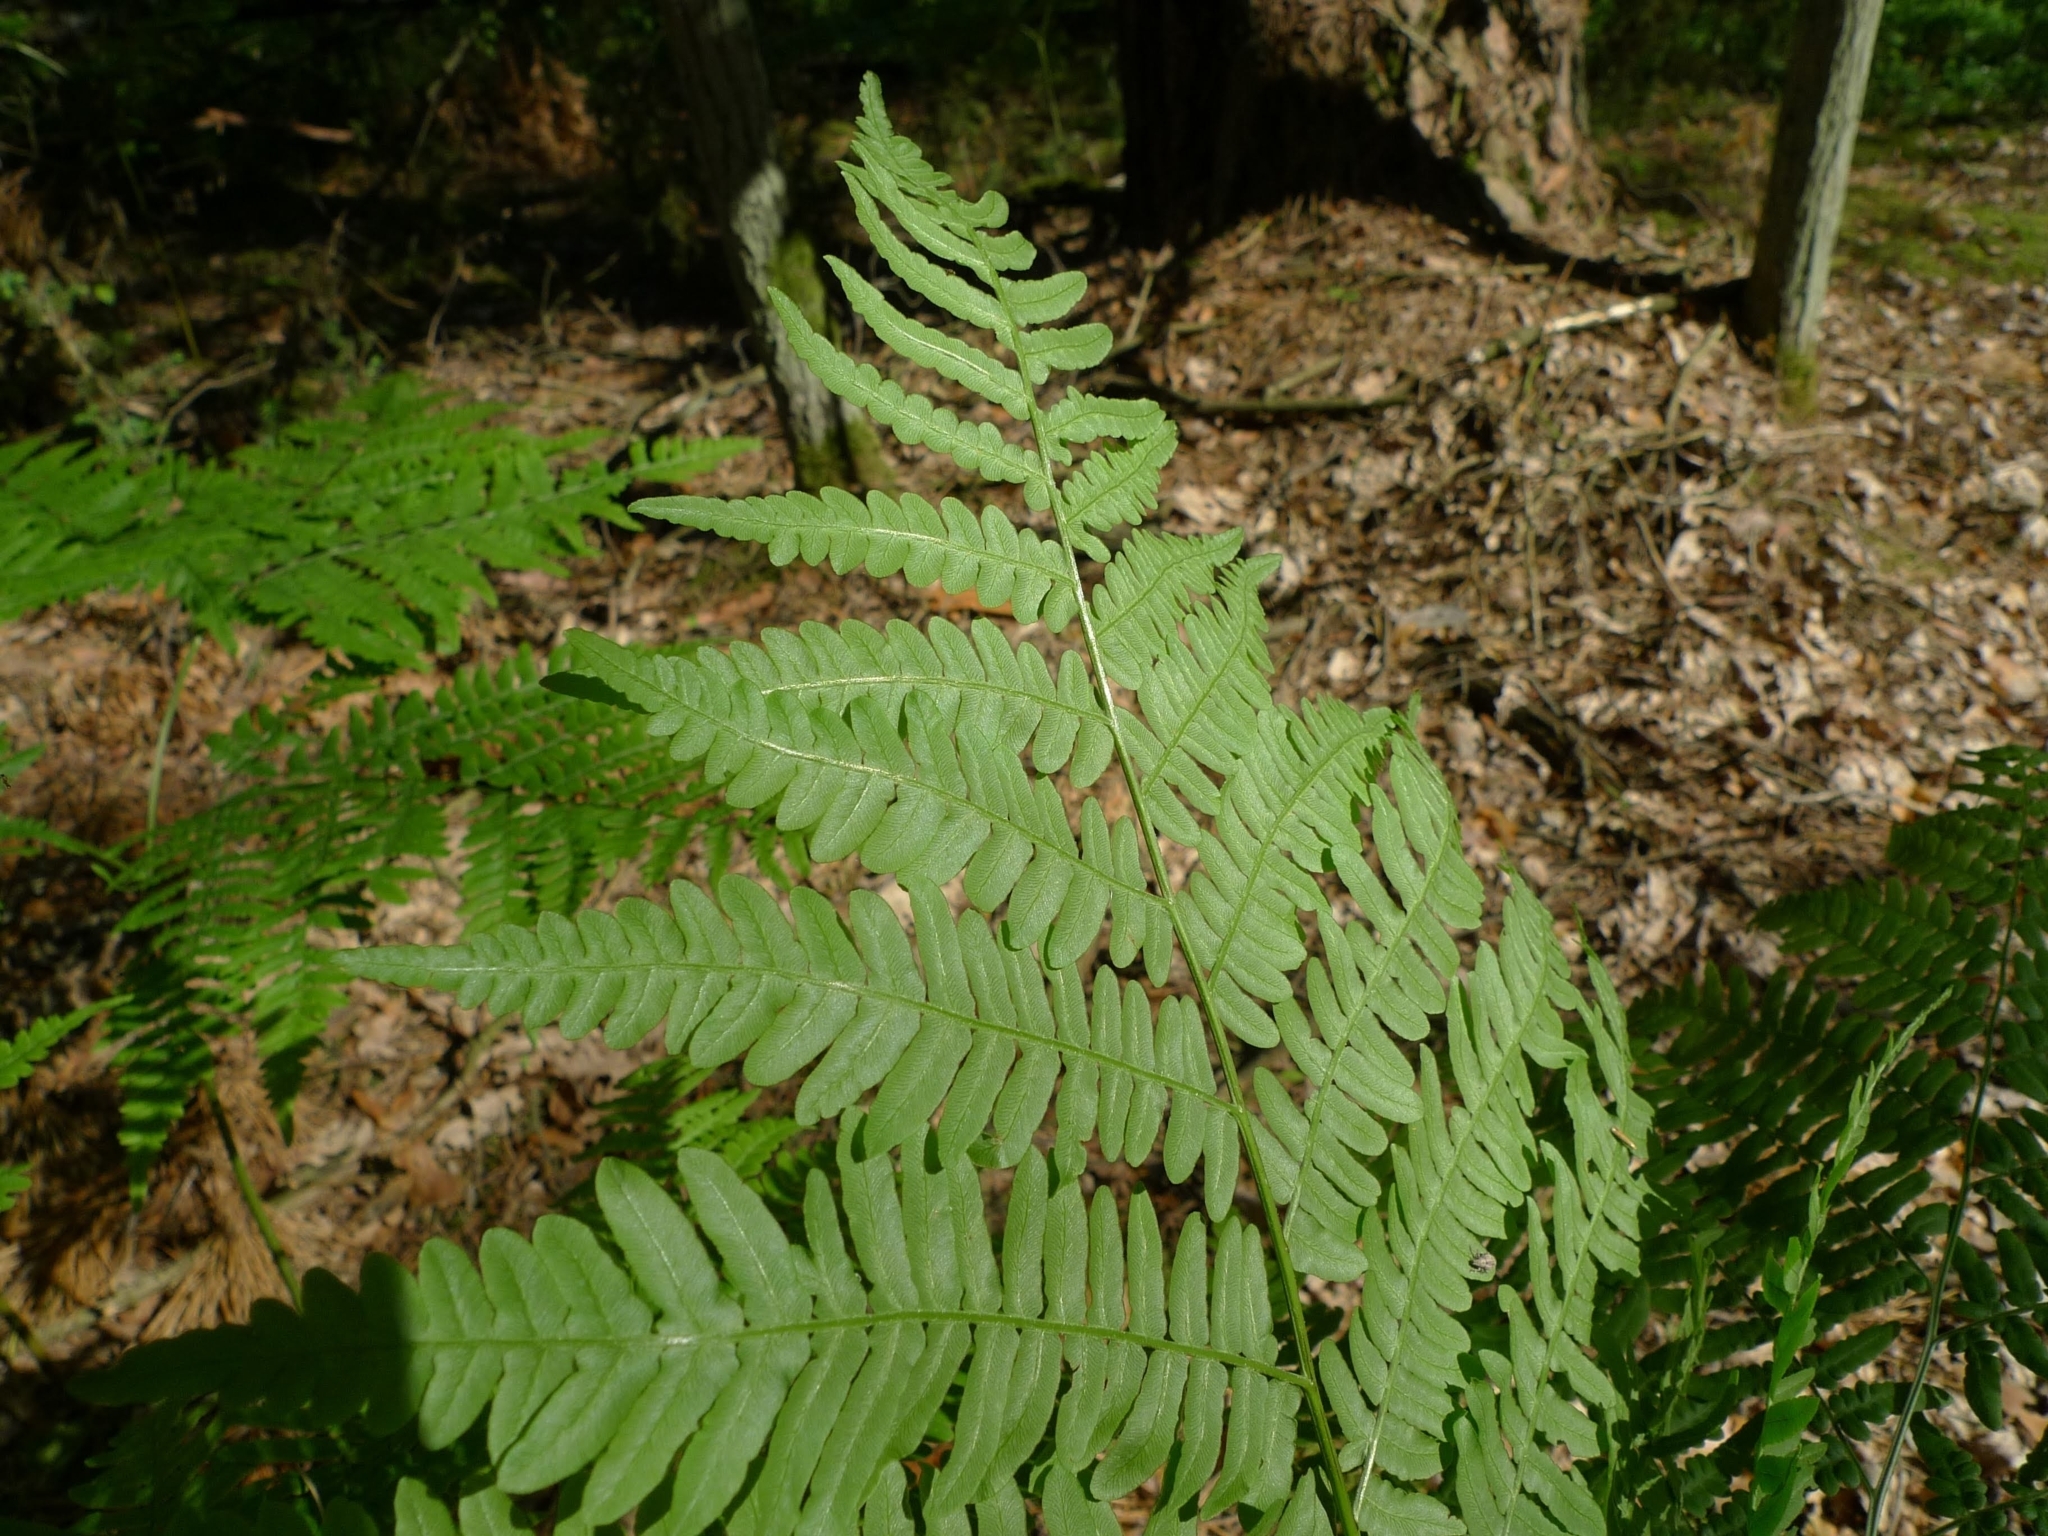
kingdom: Plantae
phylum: Tracheophyta
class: Polypodiopsida
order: Polypodiales
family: Dennstaedtiaceae
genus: Pteridium
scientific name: Pteridium aquilinum
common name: Bracken
